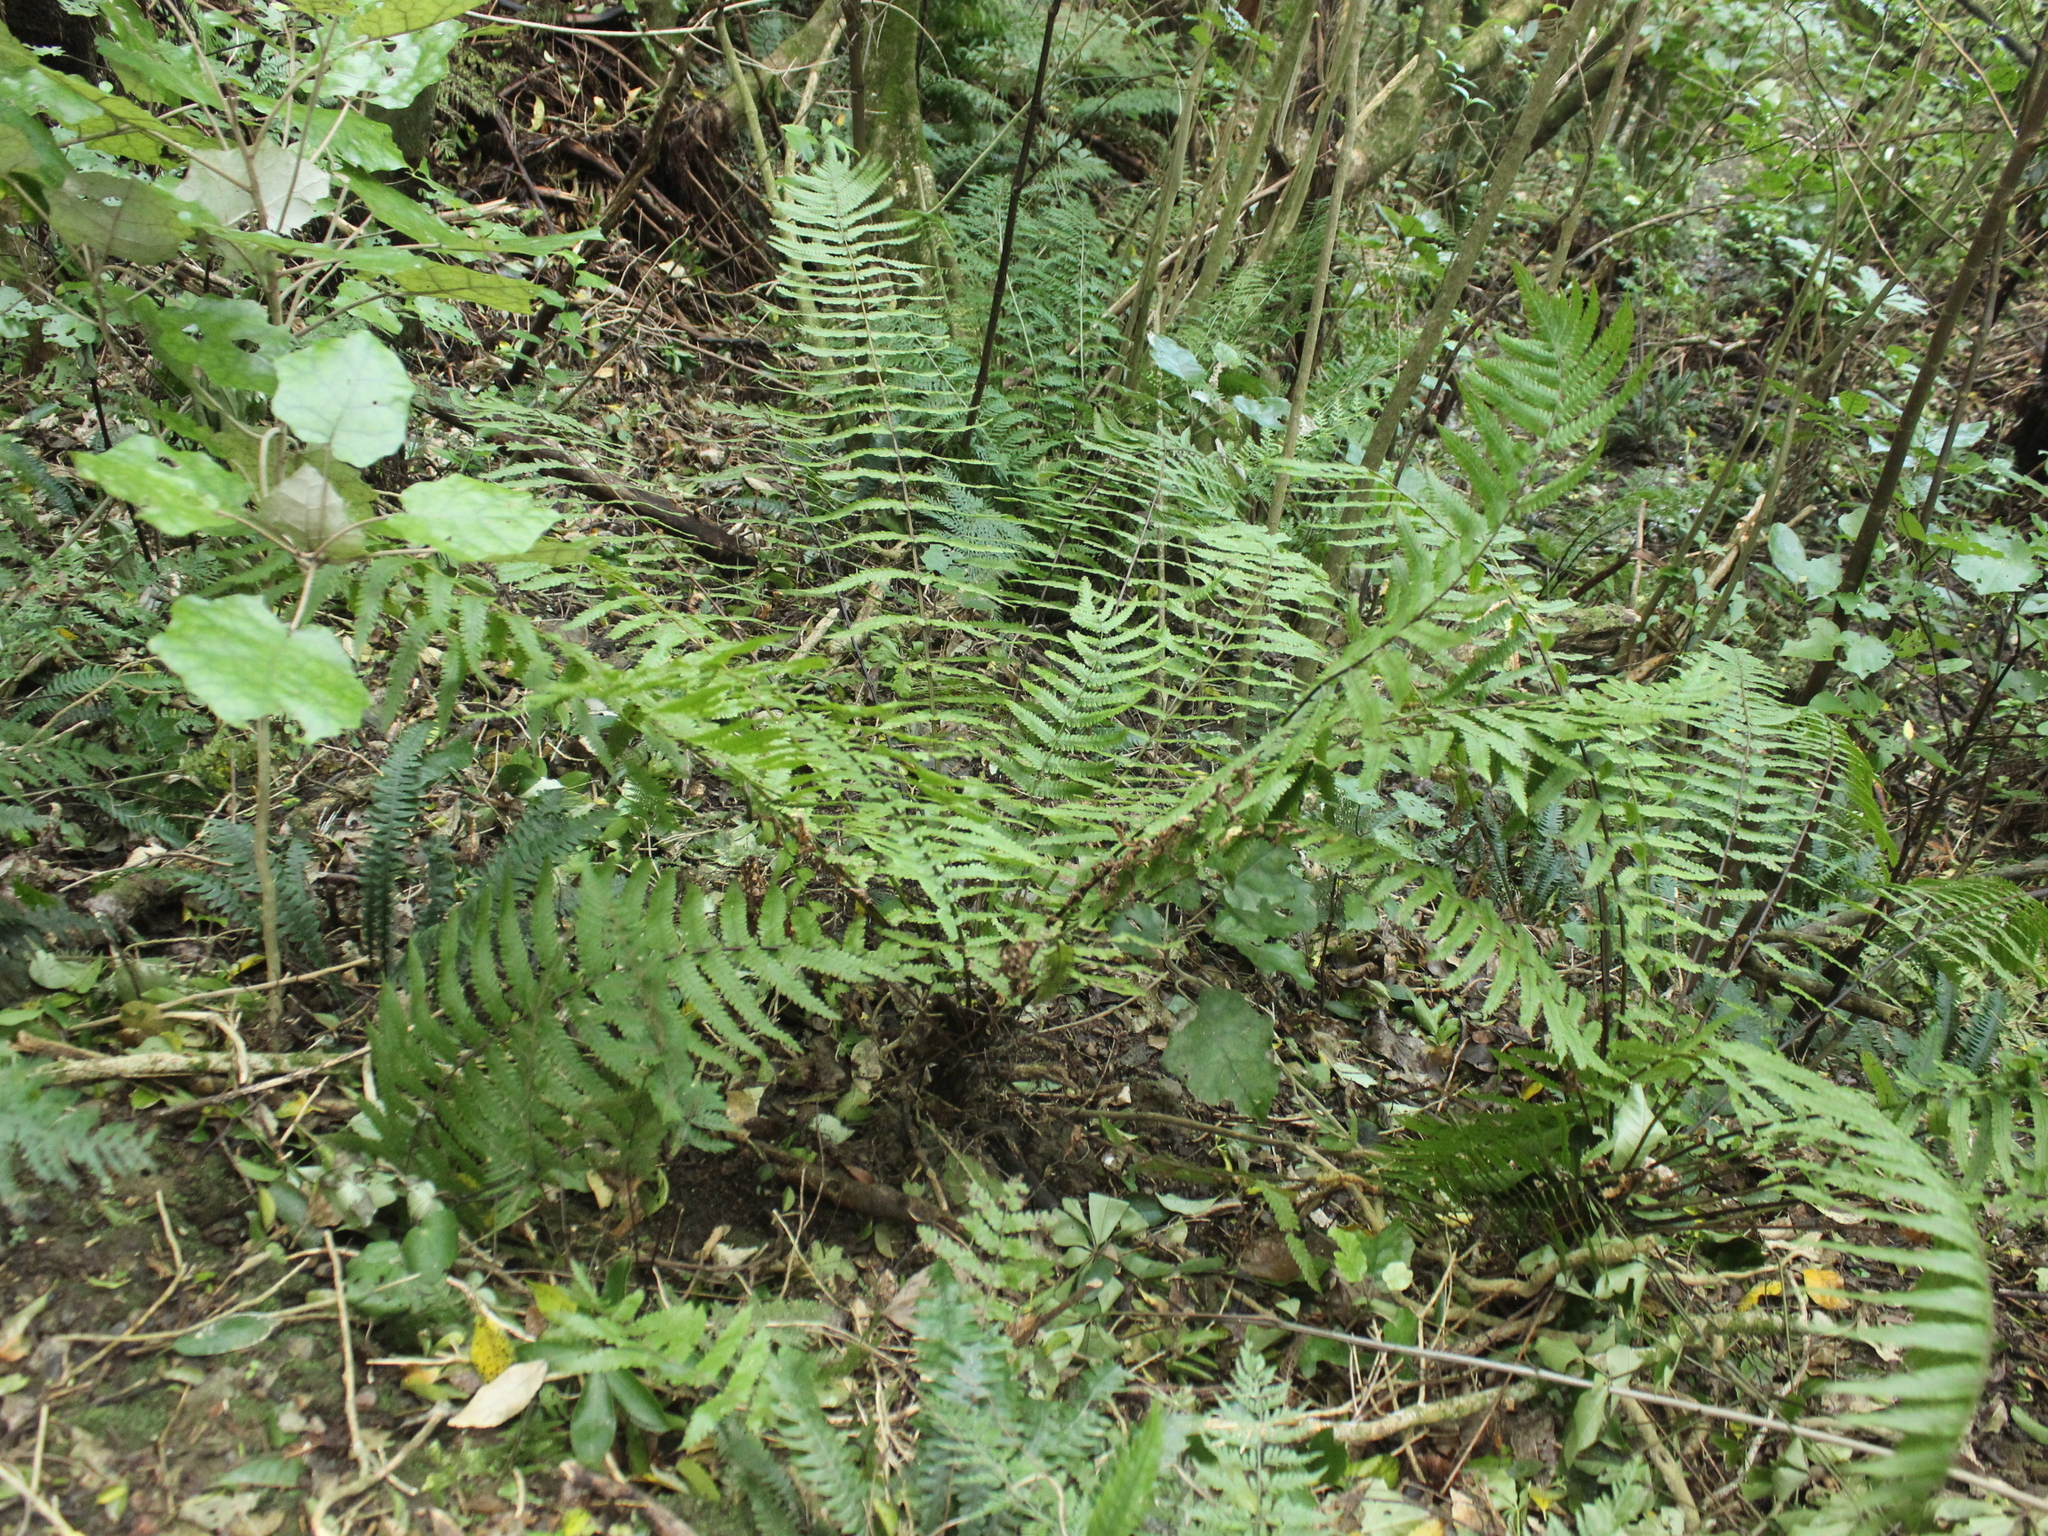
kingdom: Plantae
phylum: Tracheophyta
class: Polypodiopsida
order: Polypodiales
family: Thelypteridaceae
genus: Pakau
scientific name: Pakau pennigera
